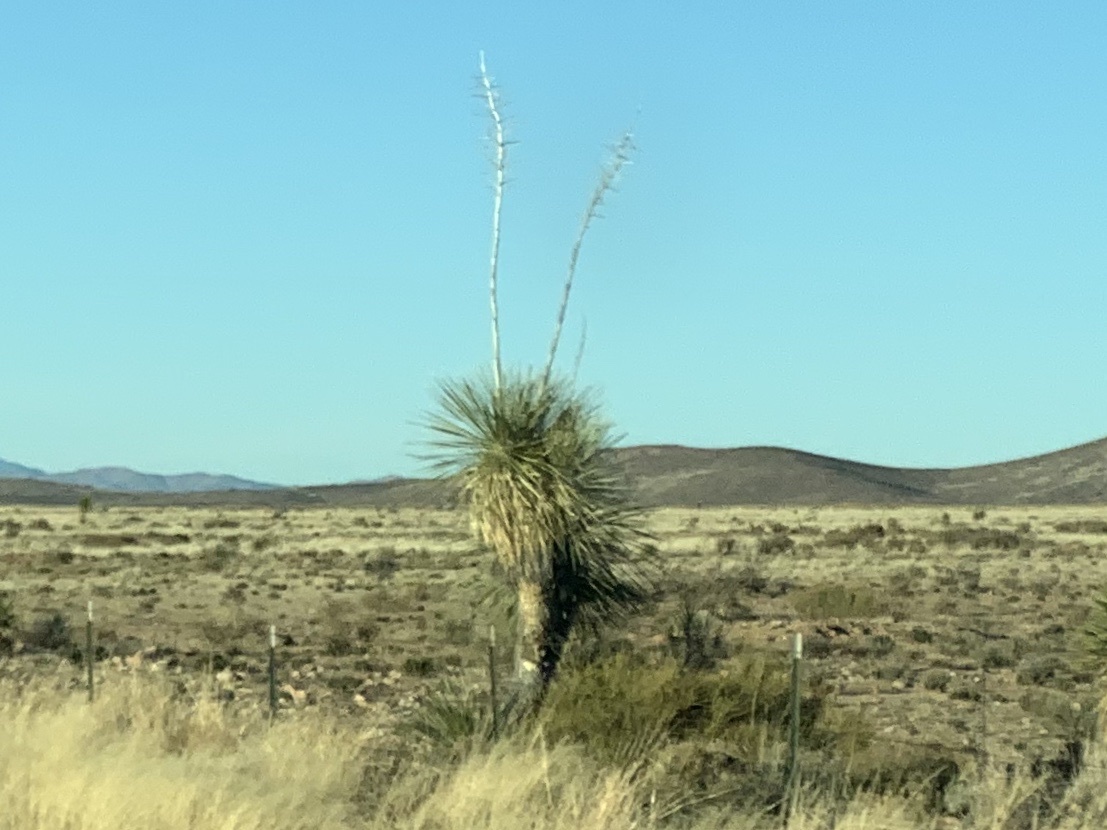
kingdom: Plantae
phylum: Tracheophyta
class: Liliopsida
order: Asparagales
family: Asparagaceae
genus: Yucca
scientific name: Yucca elata
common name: Palmella
